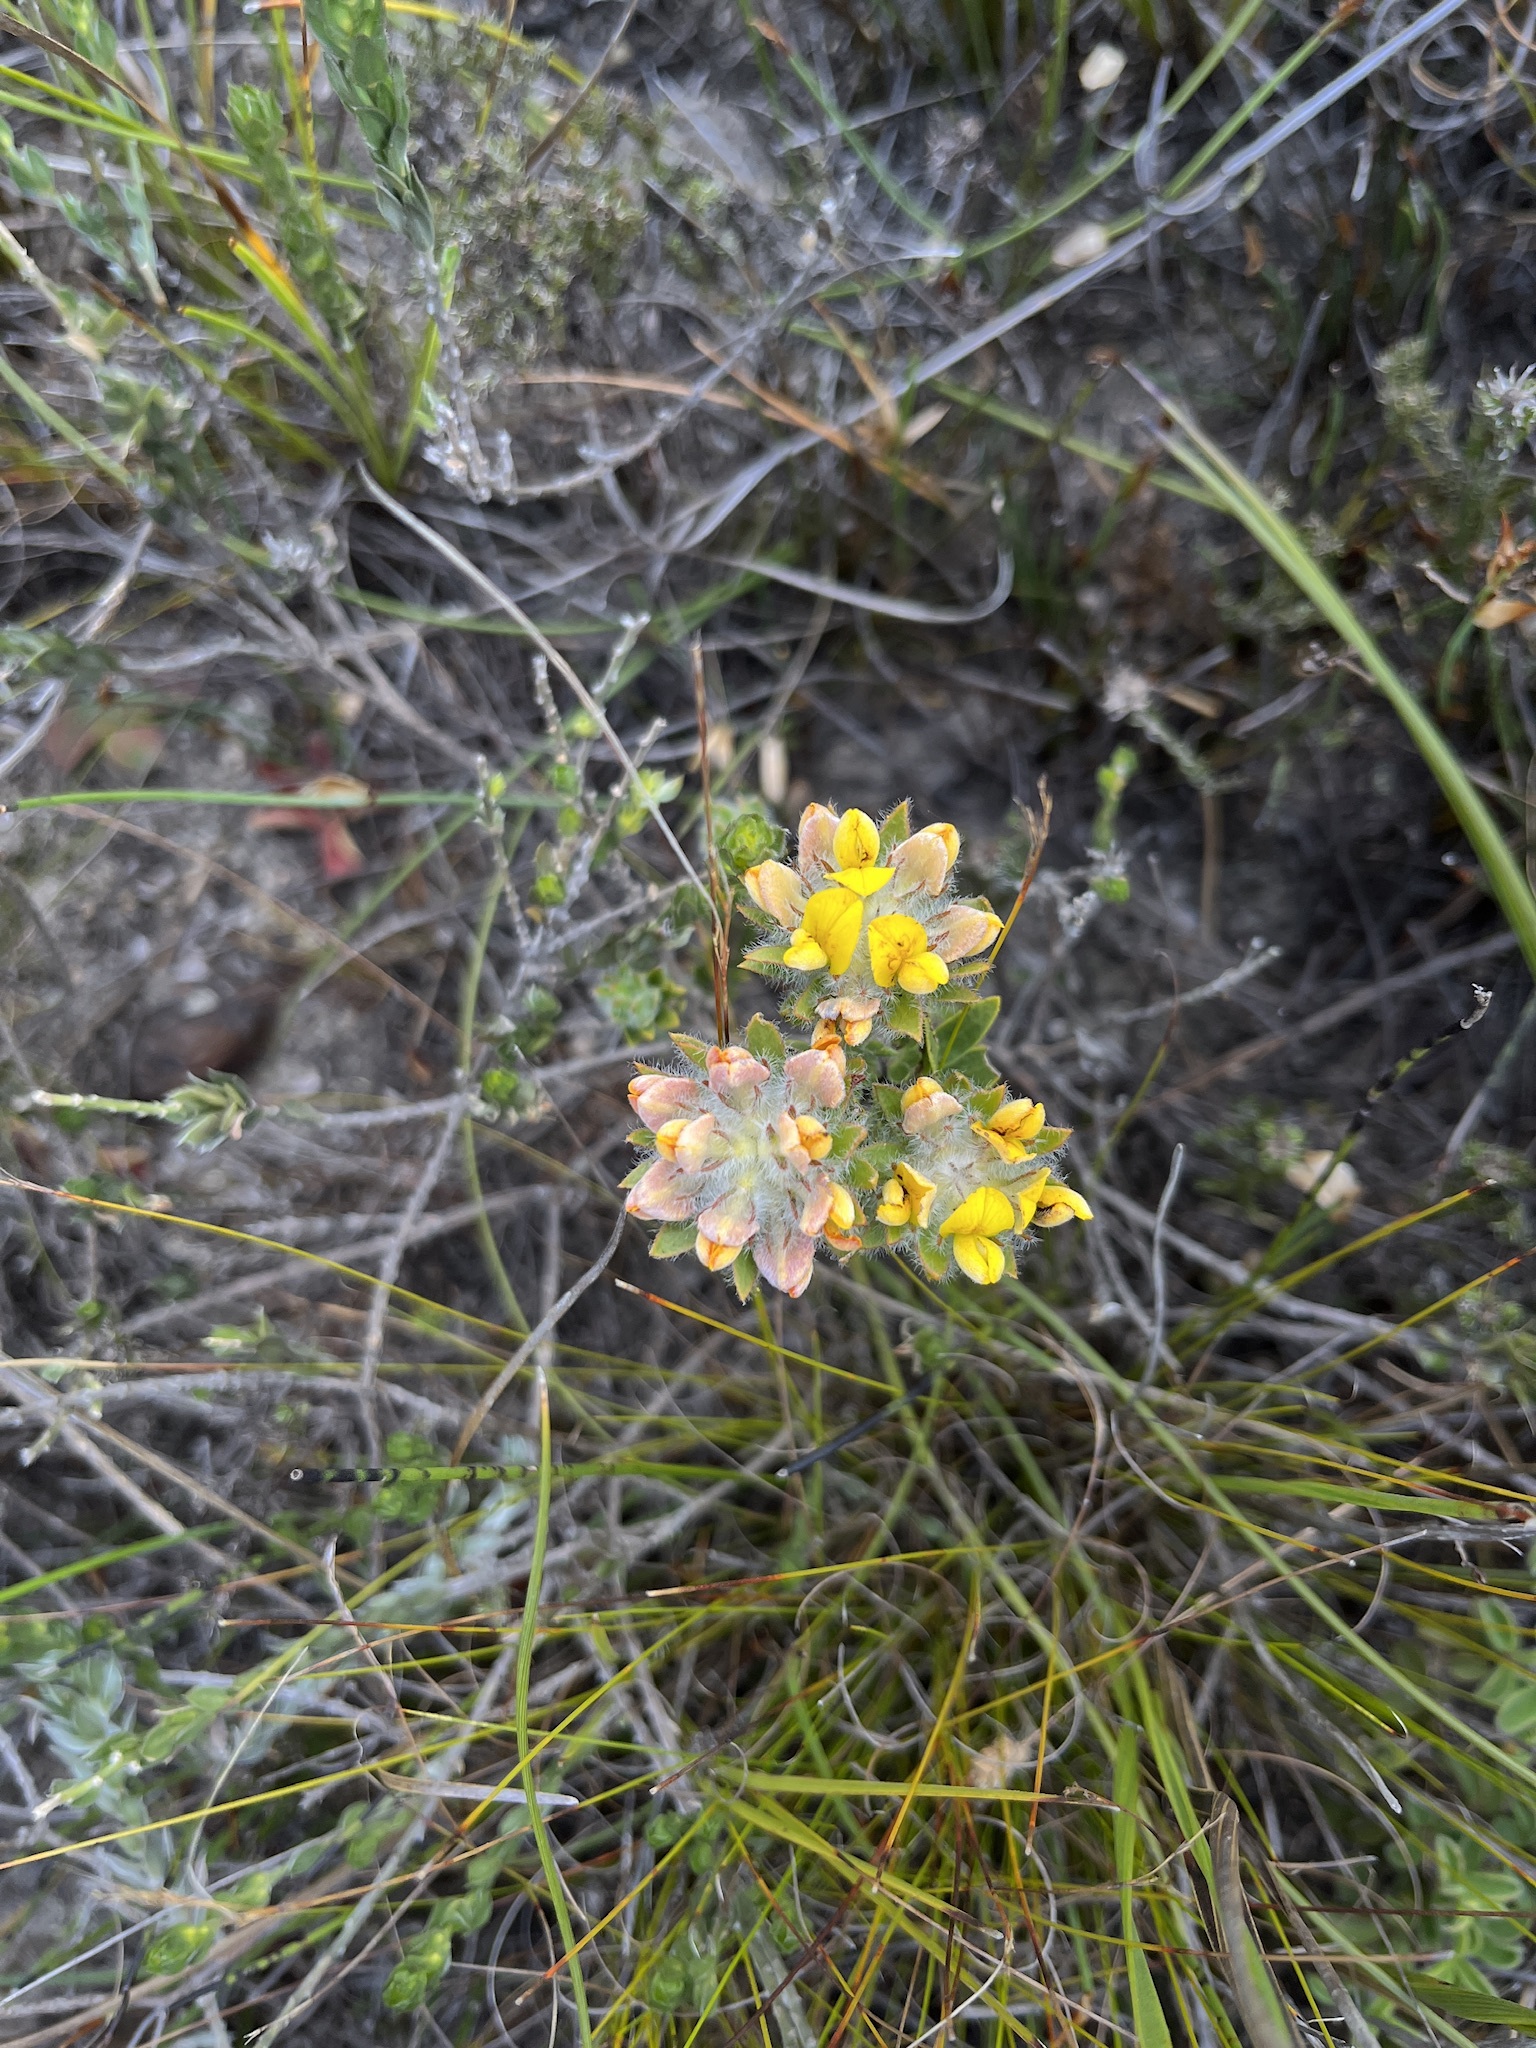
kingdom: Plantae
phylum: Tracheophyta
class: Magnoliopsida
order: Fabales
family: Fabaceae
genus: Aspalathus
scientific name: Aspalathus aspalathoides
